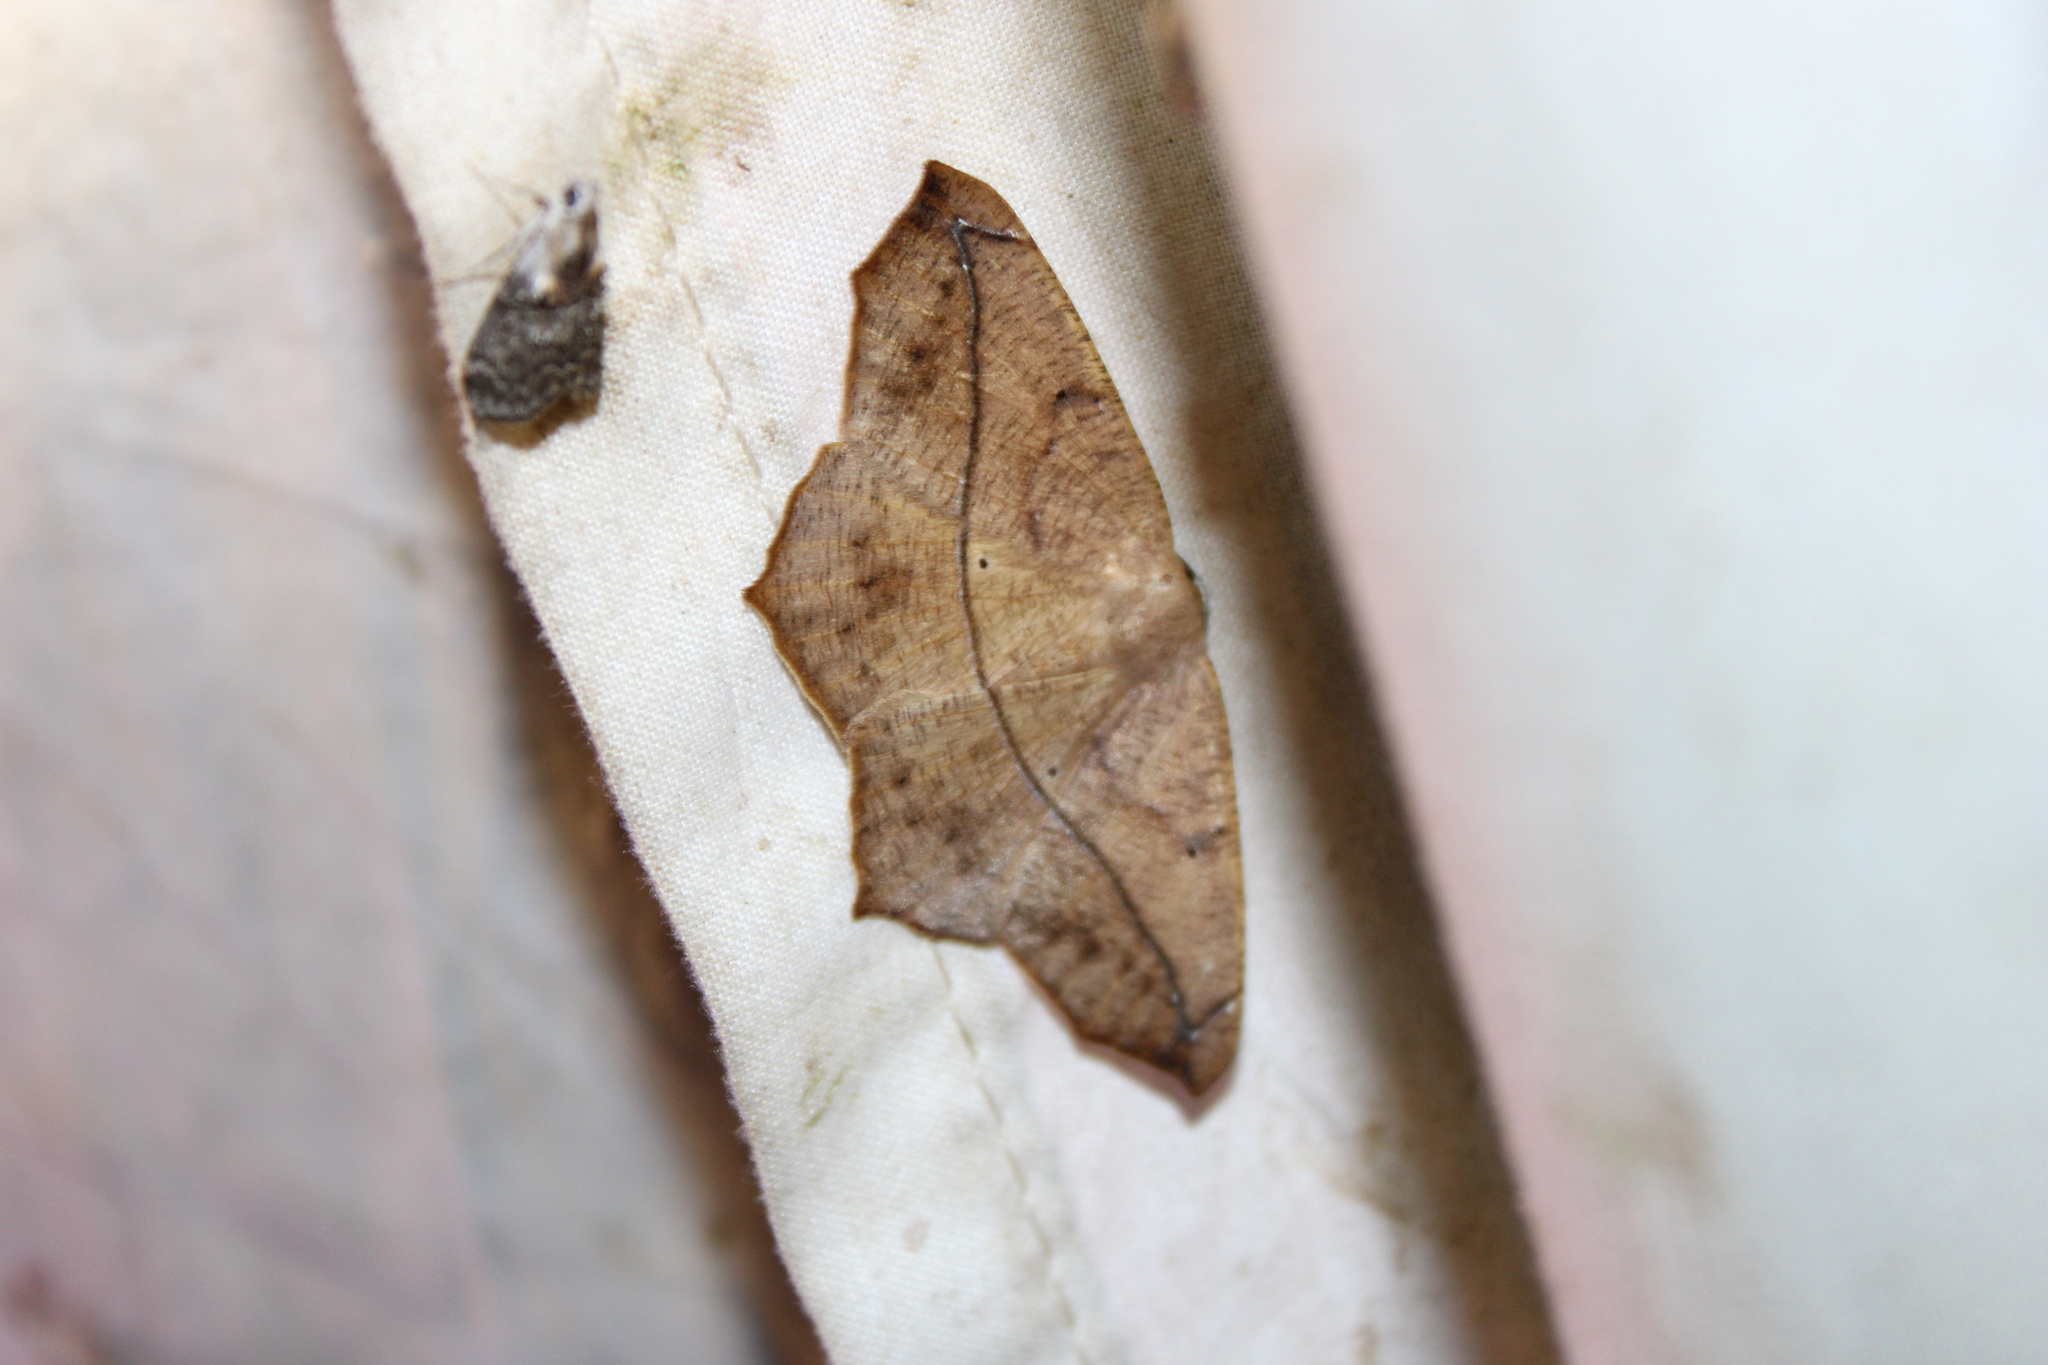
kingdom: Animalia
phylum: Arthropoda
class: Insecta
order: Lepidoptera
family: Geometridae
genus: Prochoerodes
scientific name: Prochoerodes lineola
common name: Large maple spanworm
